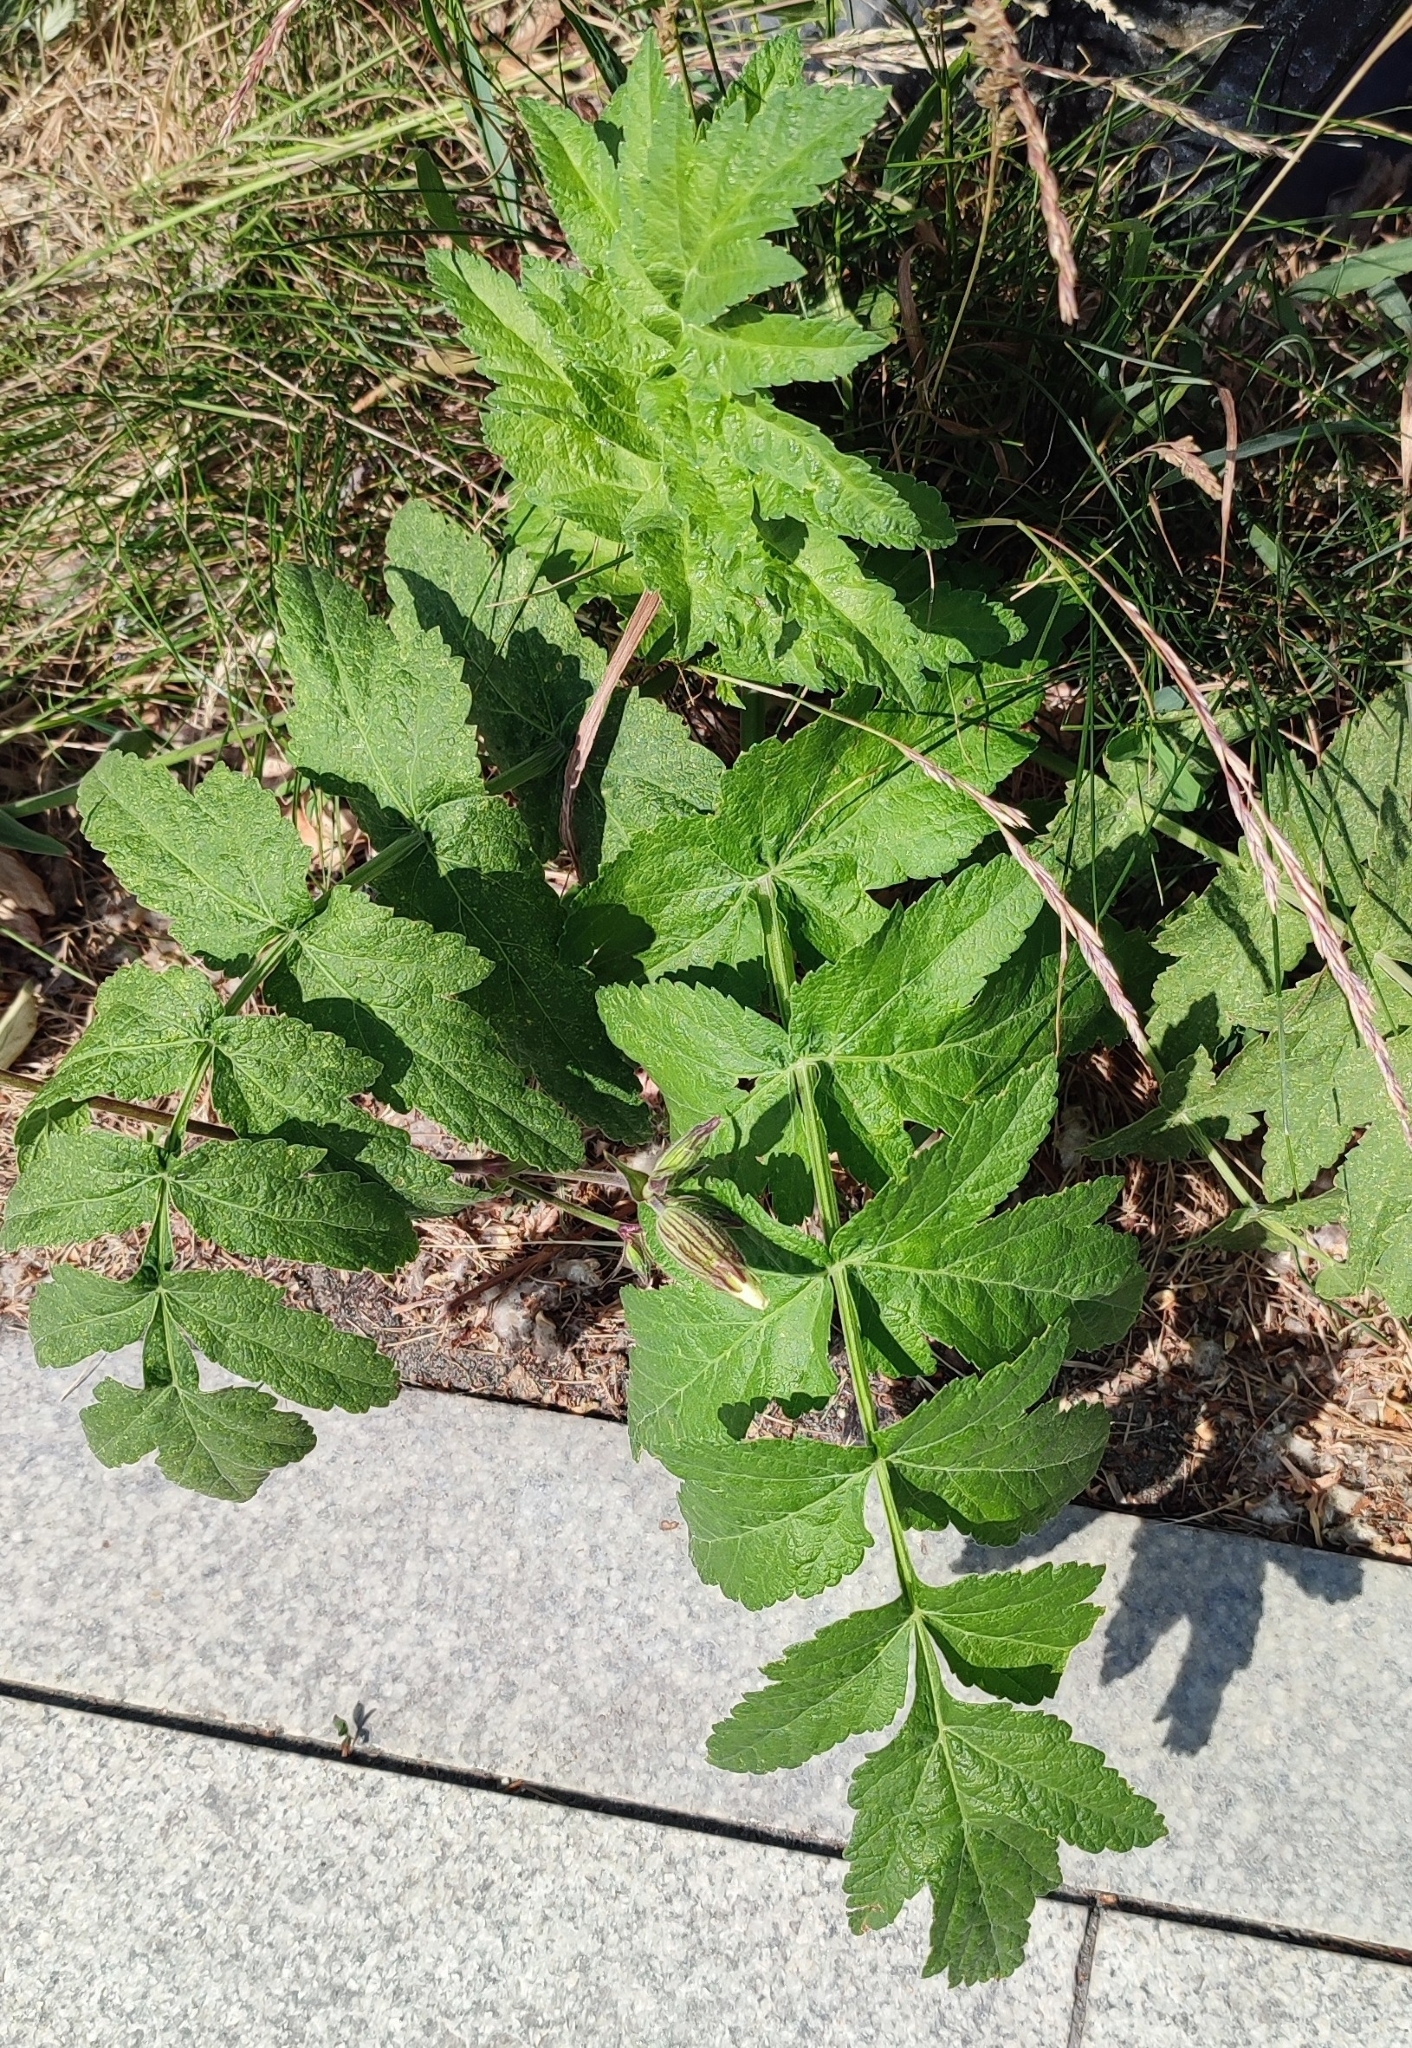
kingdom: Plantae
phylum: Tracheophyta
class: Magnoliopsida
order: Apiales
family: Apiaceae
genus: Pastinaca
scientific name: Pastinaca sativa
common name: Wild parsnip
